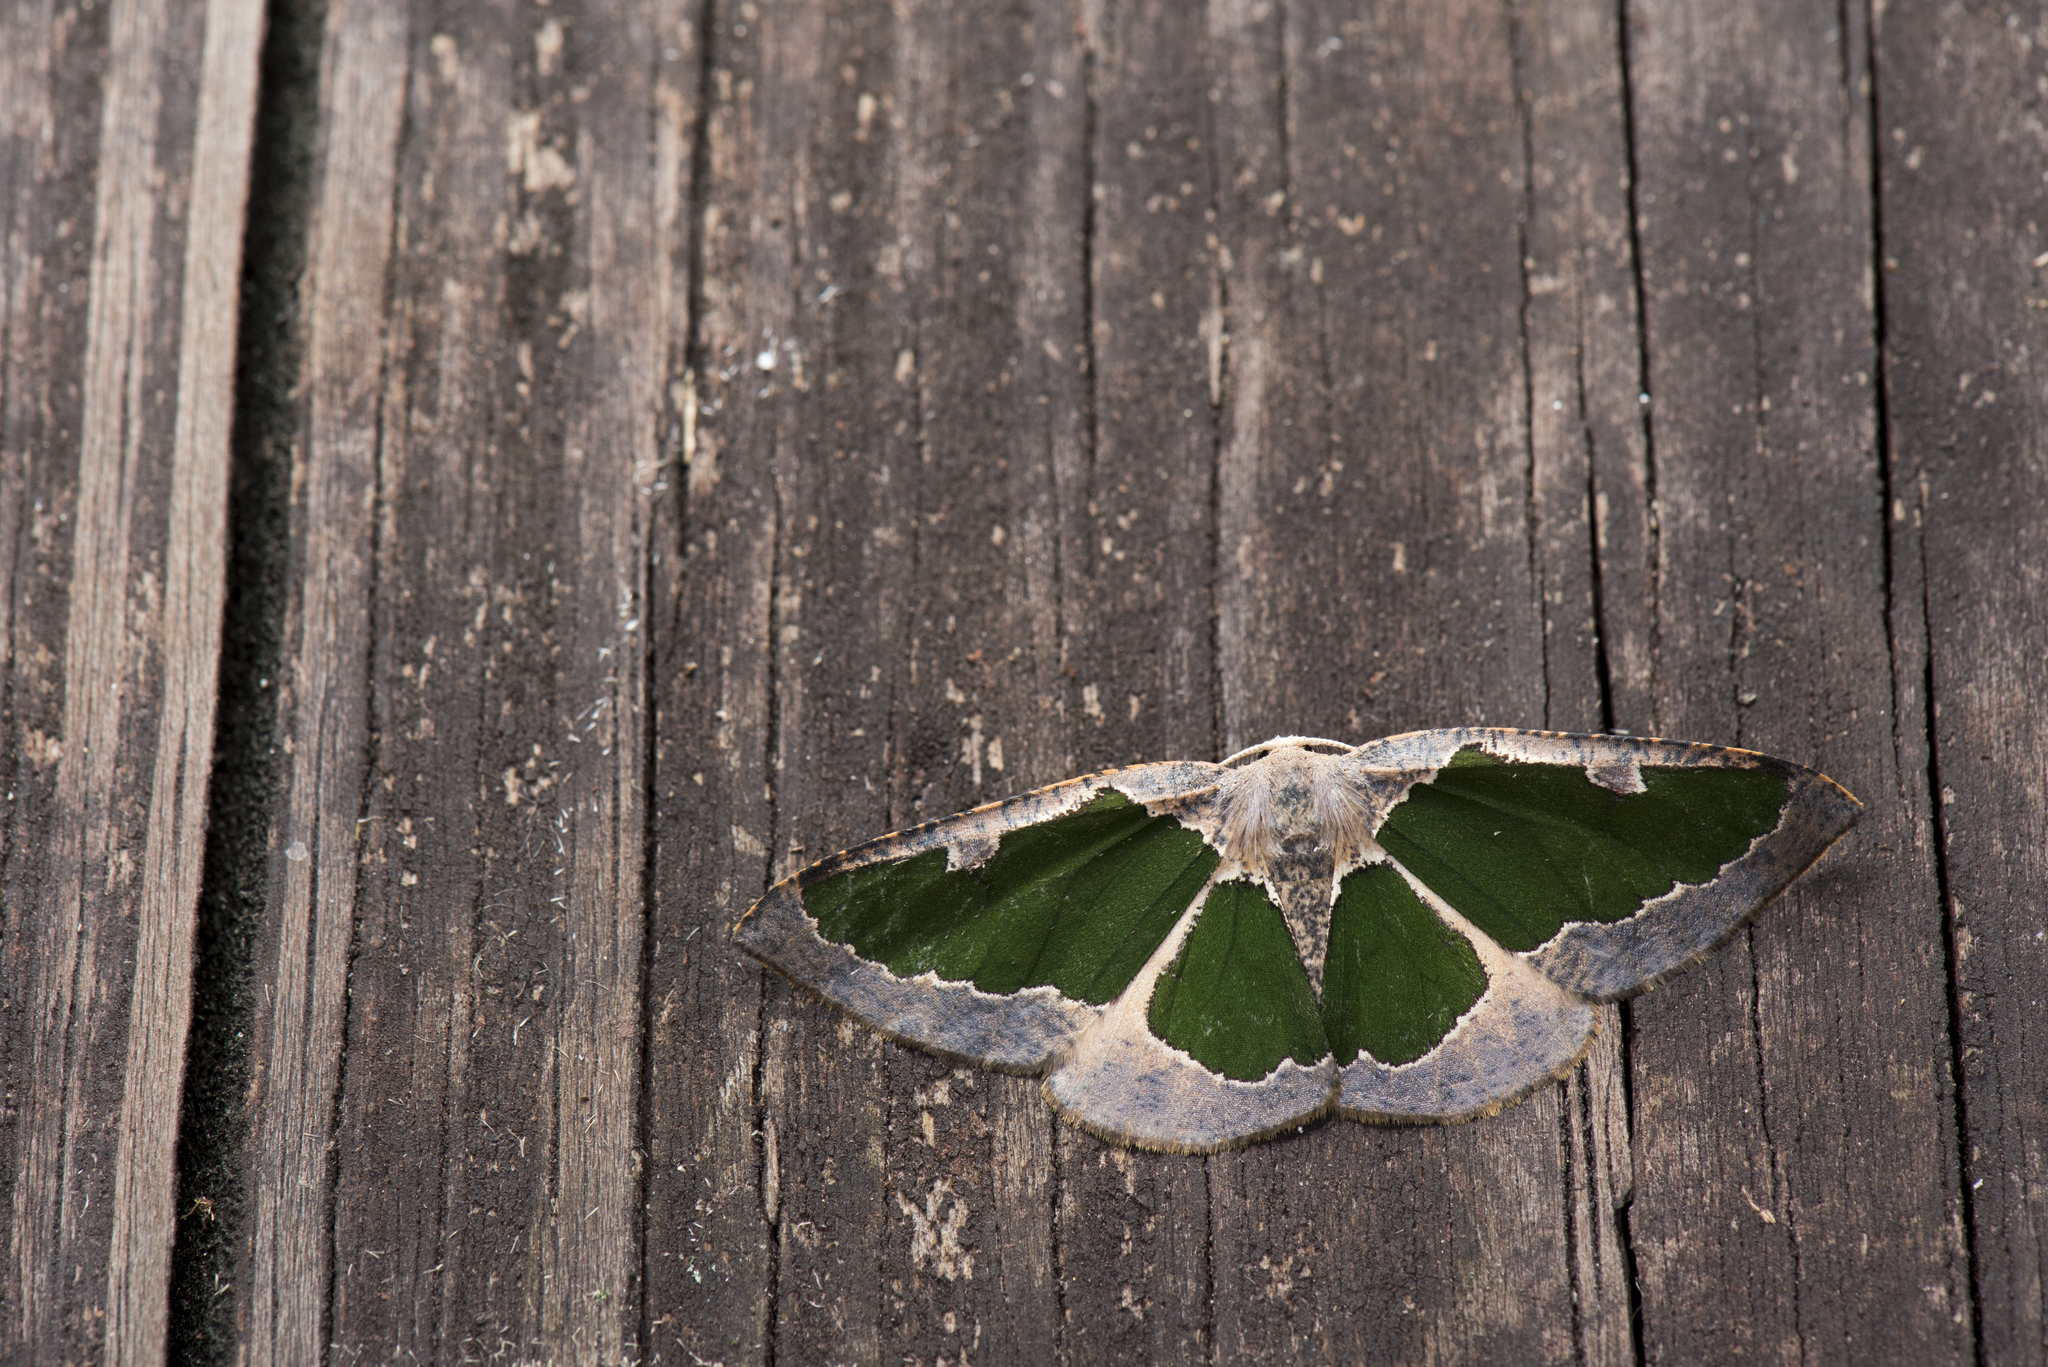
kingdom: Animalia
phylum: Arthropoda
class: Insecta
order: Lepidoptera
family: Geometridae
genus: Celenna
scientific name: Celenna festivaria
